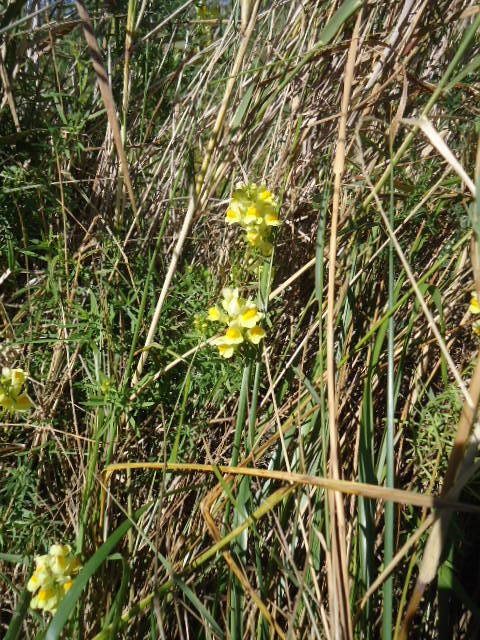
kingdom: Plantae
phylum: Tracheophyta
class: Magnoliopsida
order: Lamiales
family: Plantaginaceae
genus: Linaria
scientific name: Linaria vulgaris
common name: Butter and eggs
